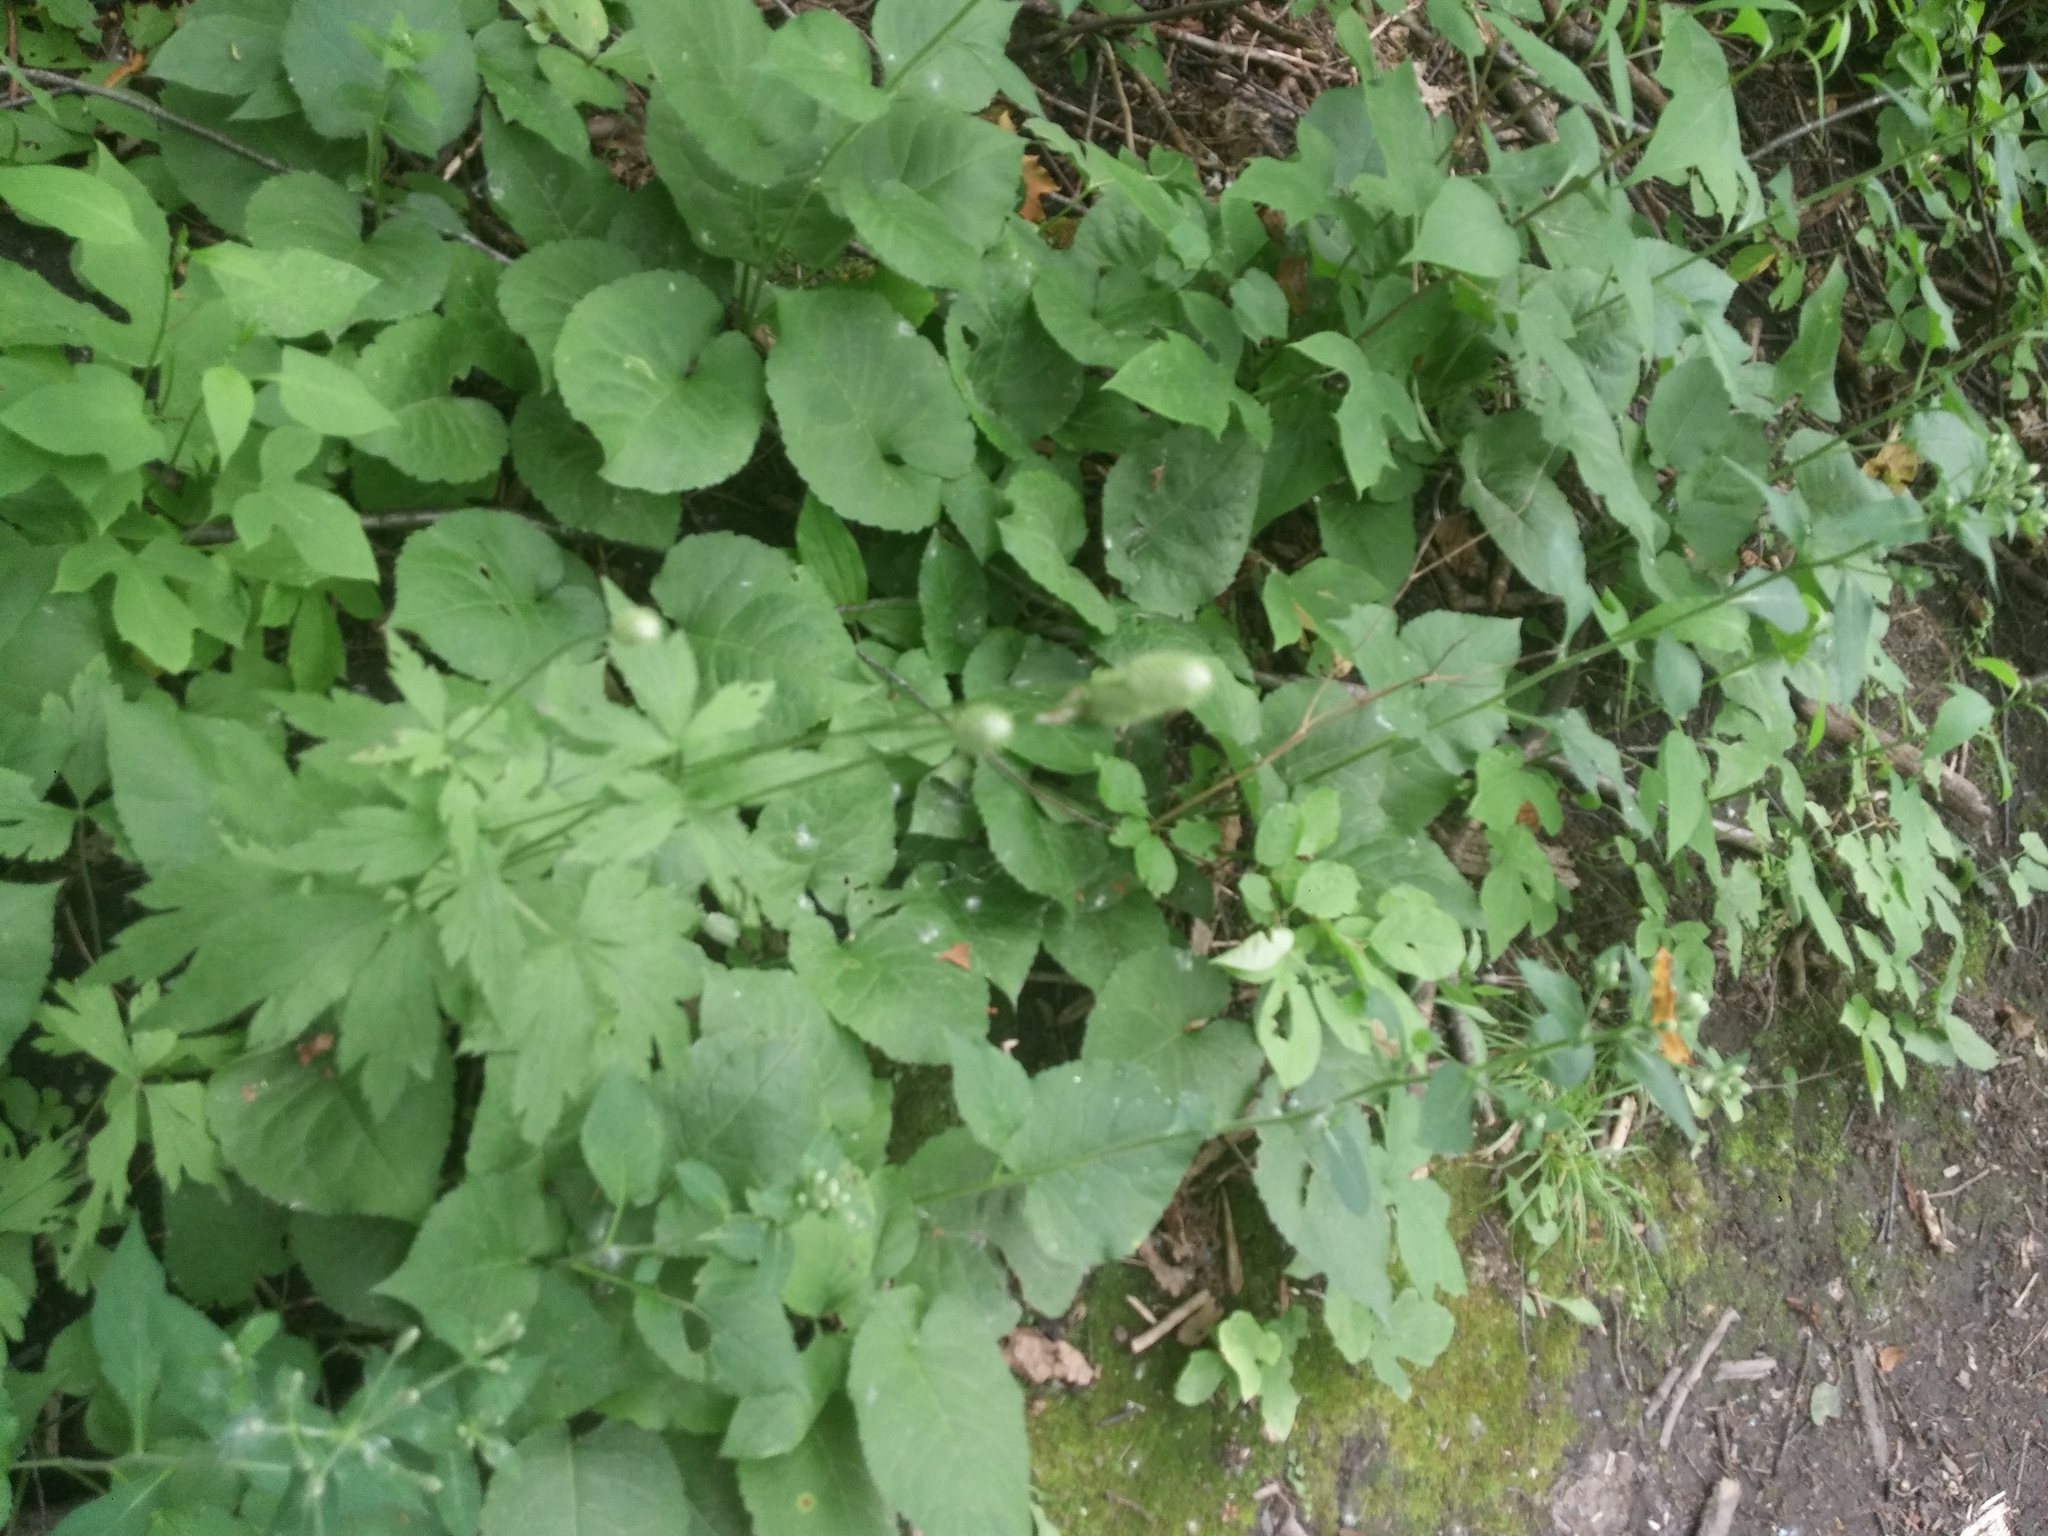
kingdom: Plantae
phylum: Tracheophyta
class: Magnoliopsida
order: Ranunculales
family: Ranunculaceae
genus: Anemone
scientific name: Anemone virginiana
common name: Tall anemone
